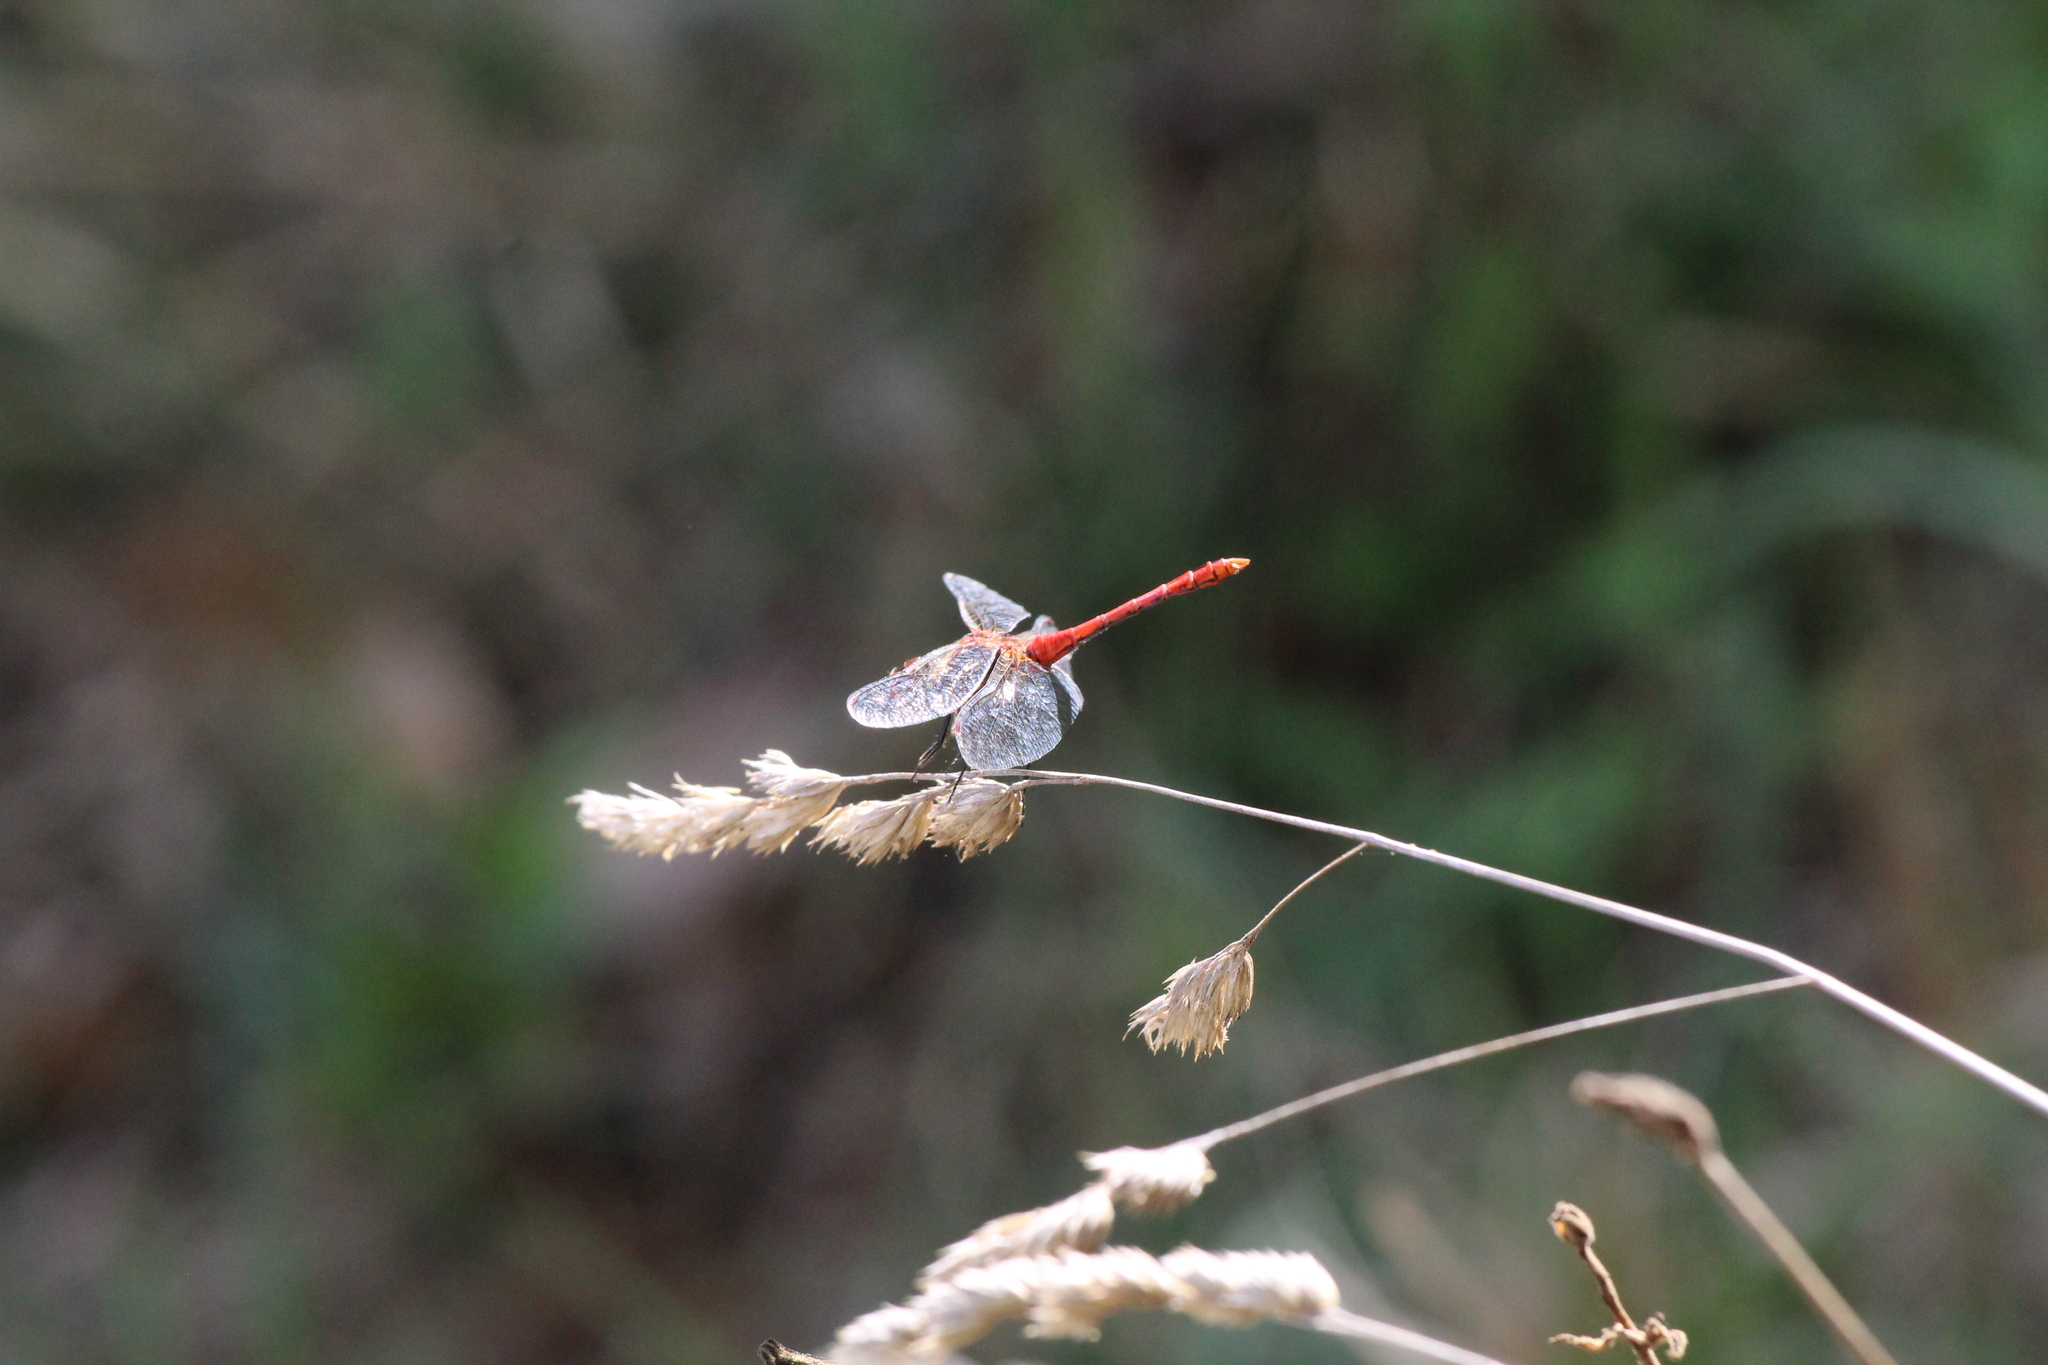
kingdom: Animalia
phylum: Arthropoda
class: Insecta
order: Odonata
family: Libellulidae
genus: Sympetrum
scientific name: Sympetrum sanguineum
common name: Ruddy darter
